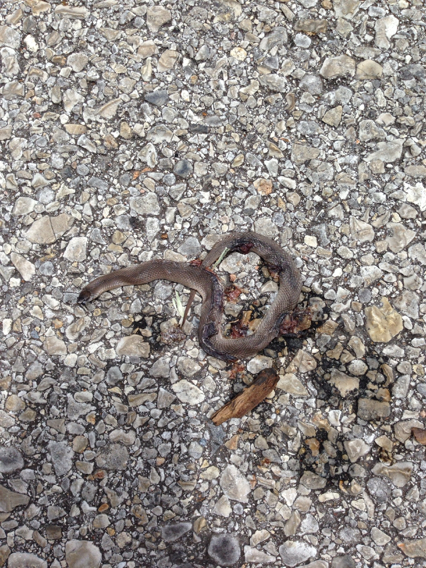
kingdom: Animalia
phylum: Chordata
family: Natricidae
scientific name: Natricidae
